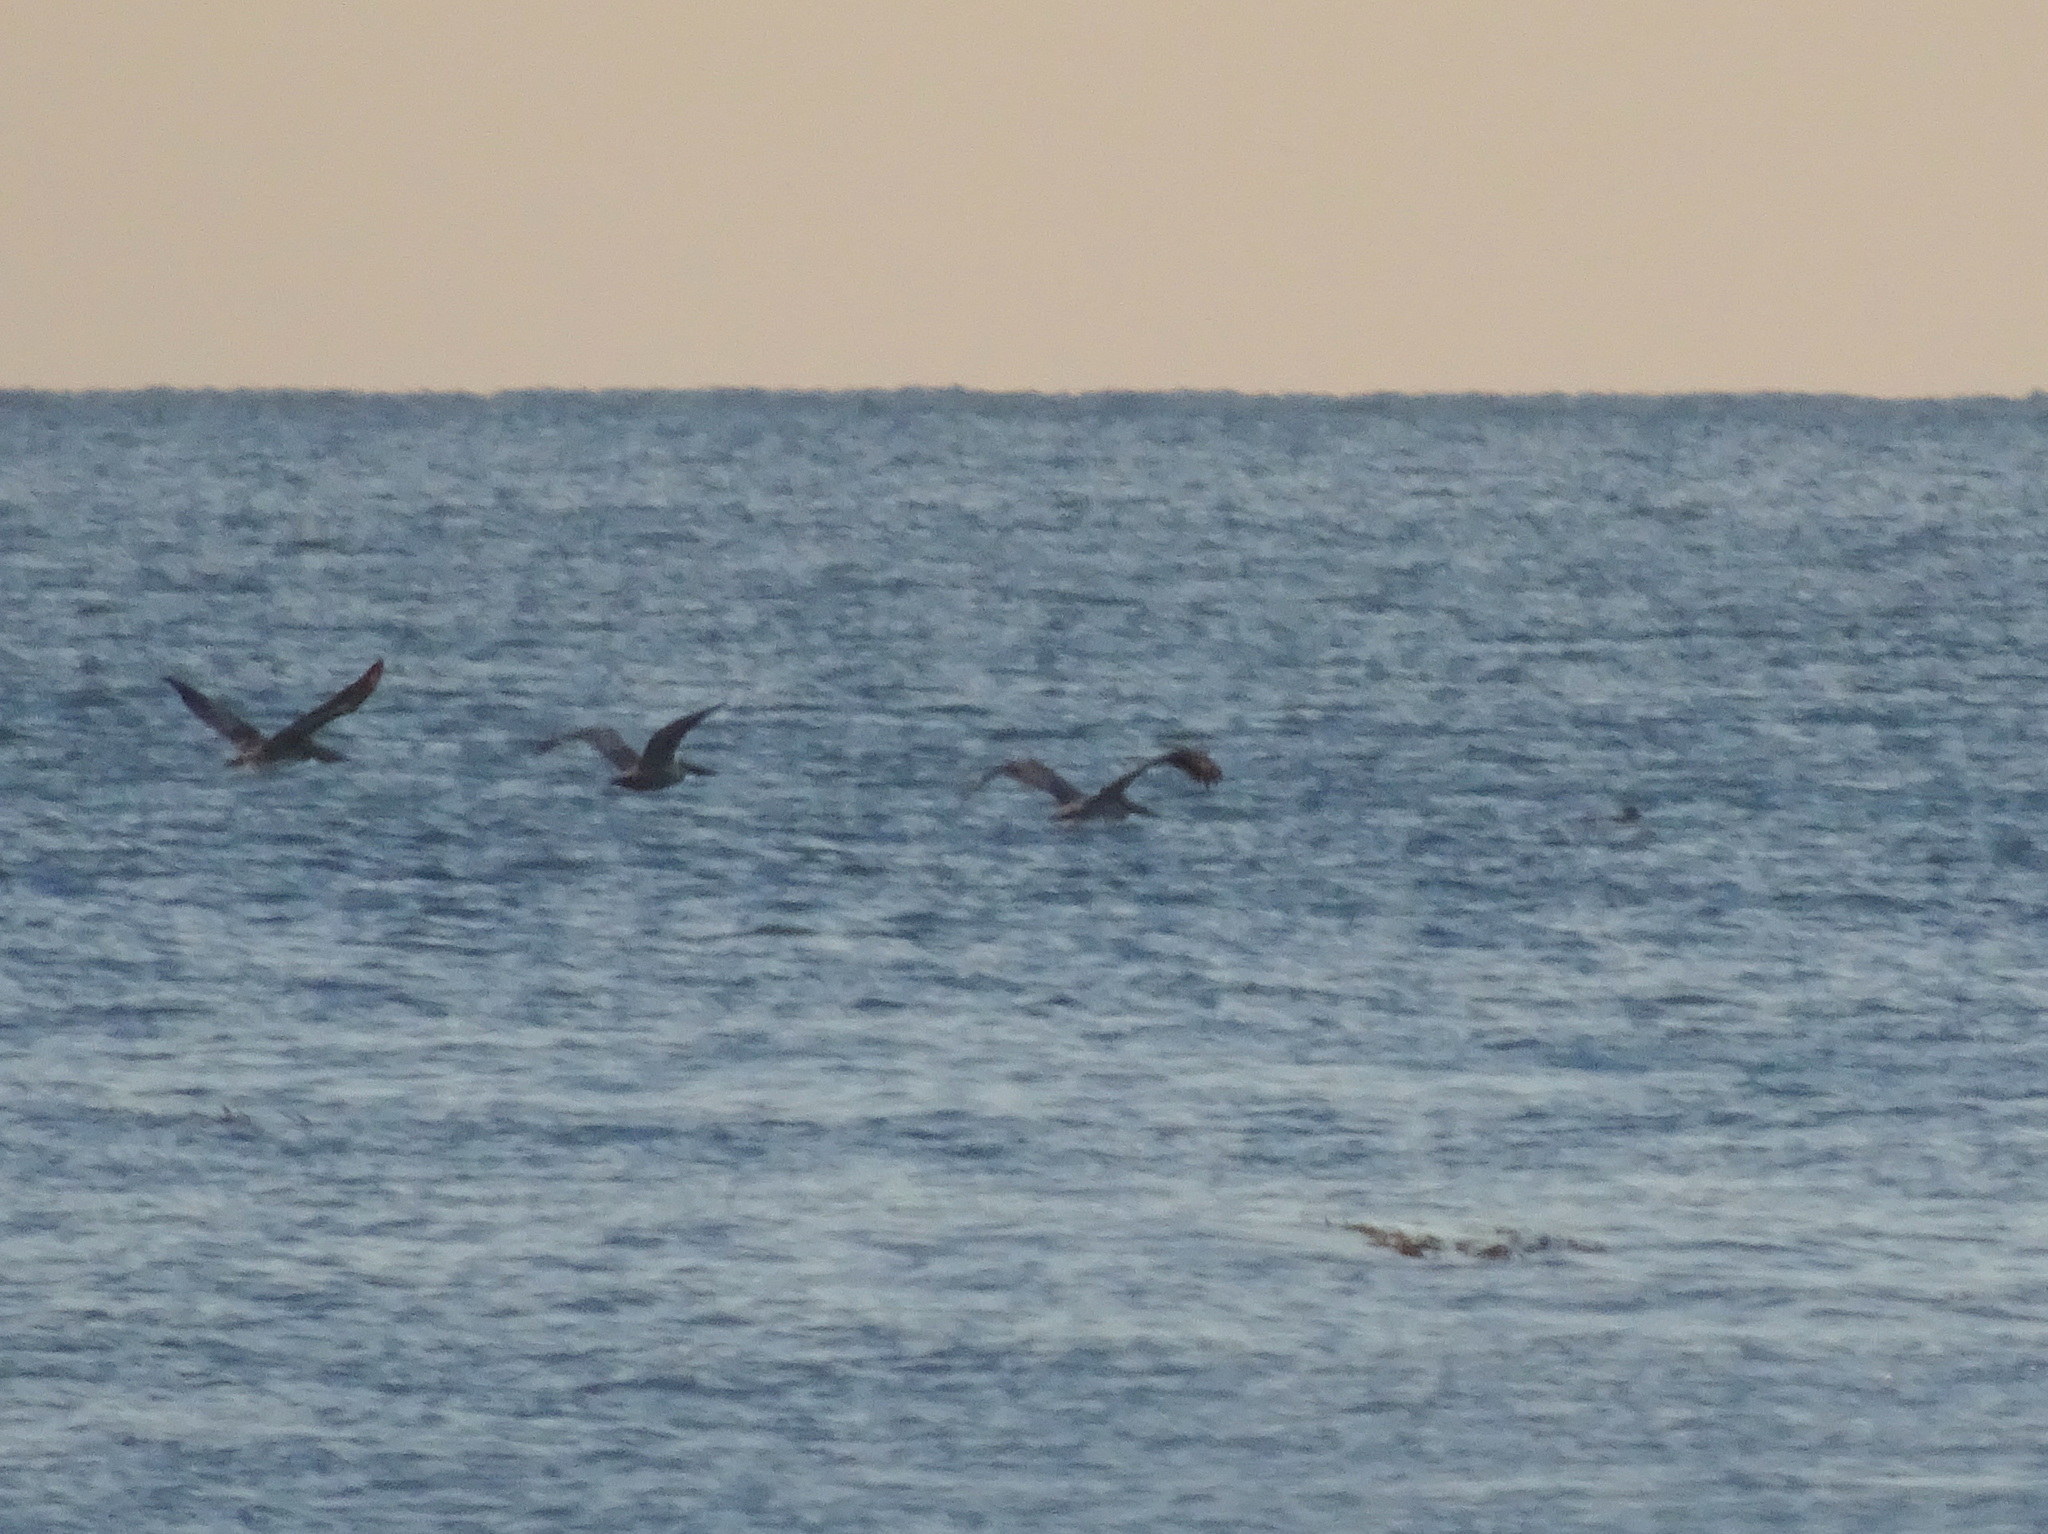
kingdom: Animalia
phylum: Chordata
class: Aves
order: Pelecaniformes
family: Pelecanidae
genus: Pelecanus
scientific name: Pelecanus occidentalis
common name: Brown pelican
